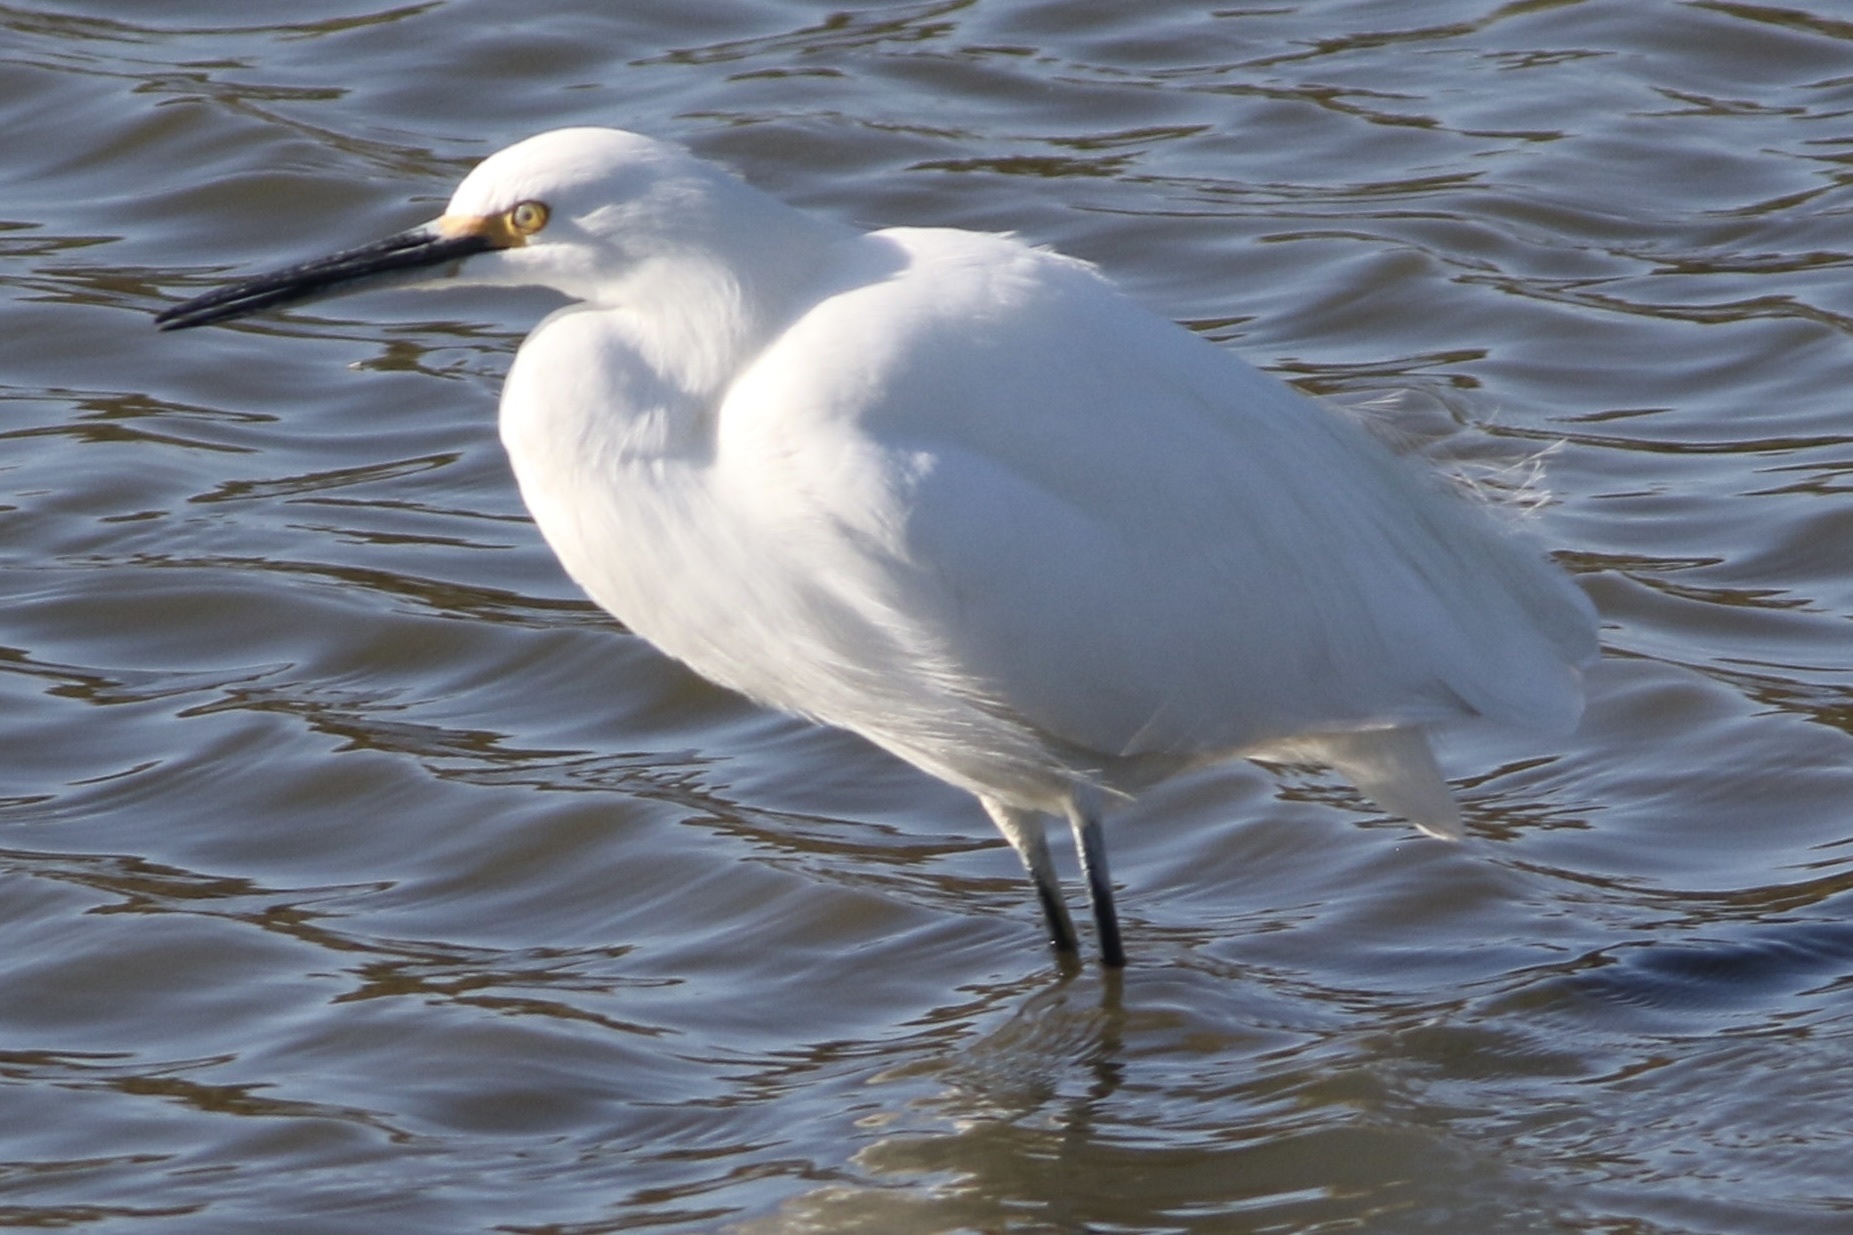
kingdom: Animalia
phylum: Chordata
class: Aves
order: Pelecaniformes
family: Ardeidae
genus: Egretta
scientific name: Egretta thula
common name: Snowy egret
